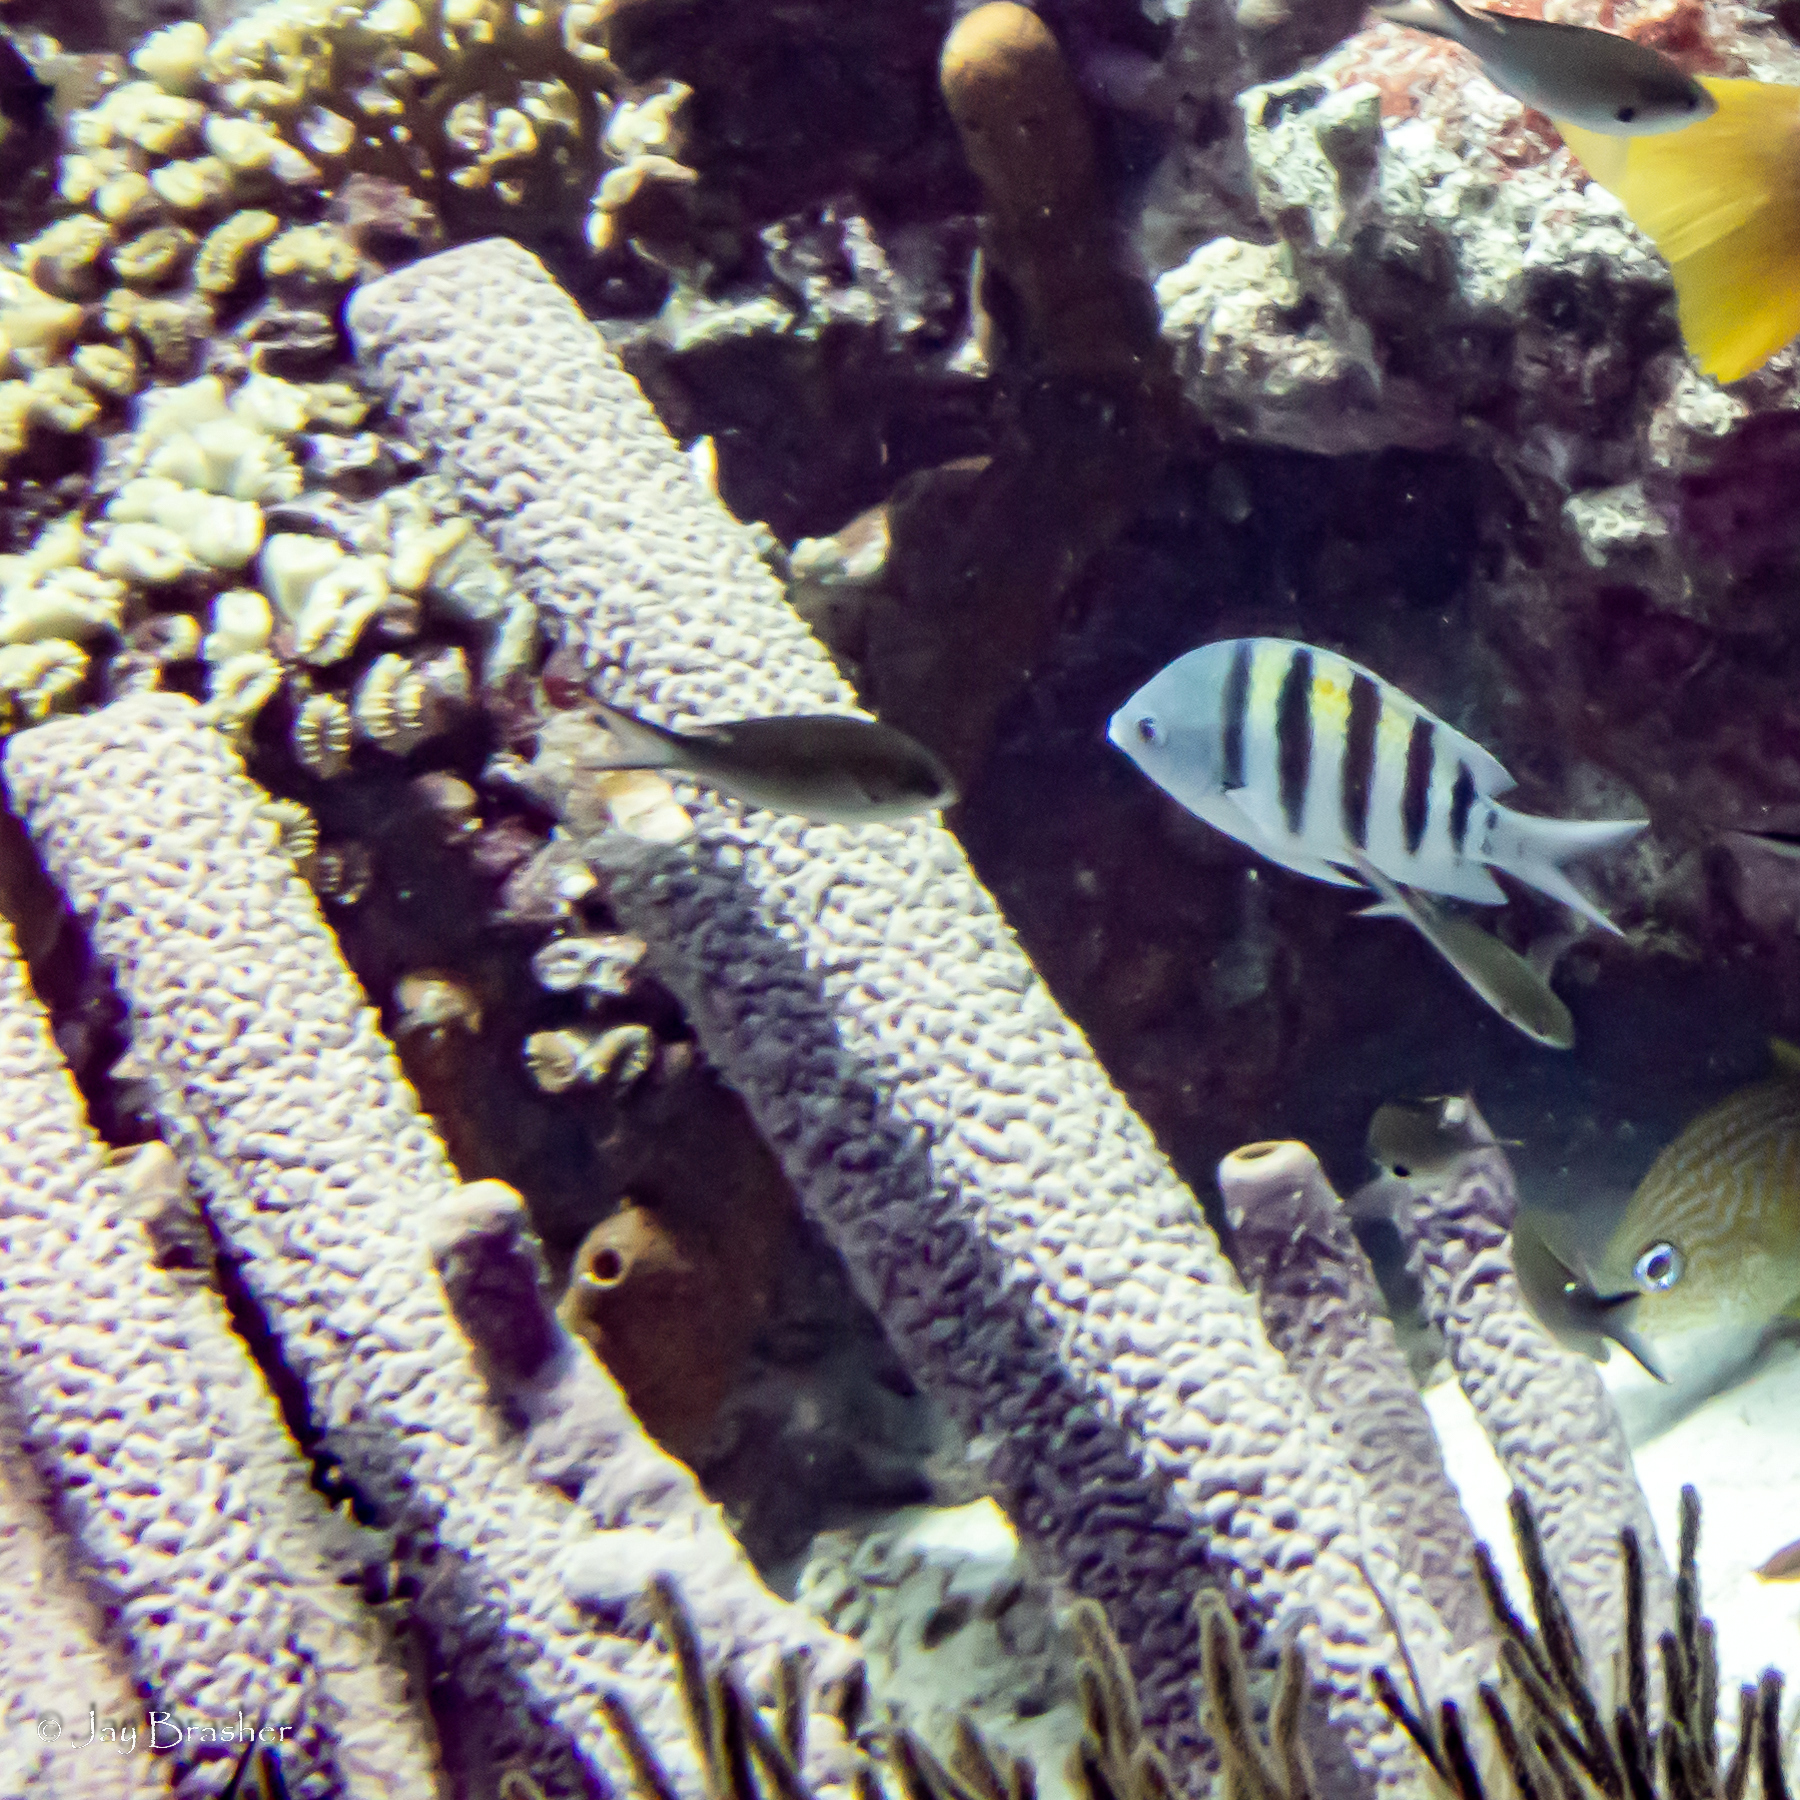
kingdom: Animalia
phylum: Chordata
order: Perciformes
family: Pomacentridae
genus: Abudefduf
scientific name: Abudefduf saxatilis
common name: Sergeant major
